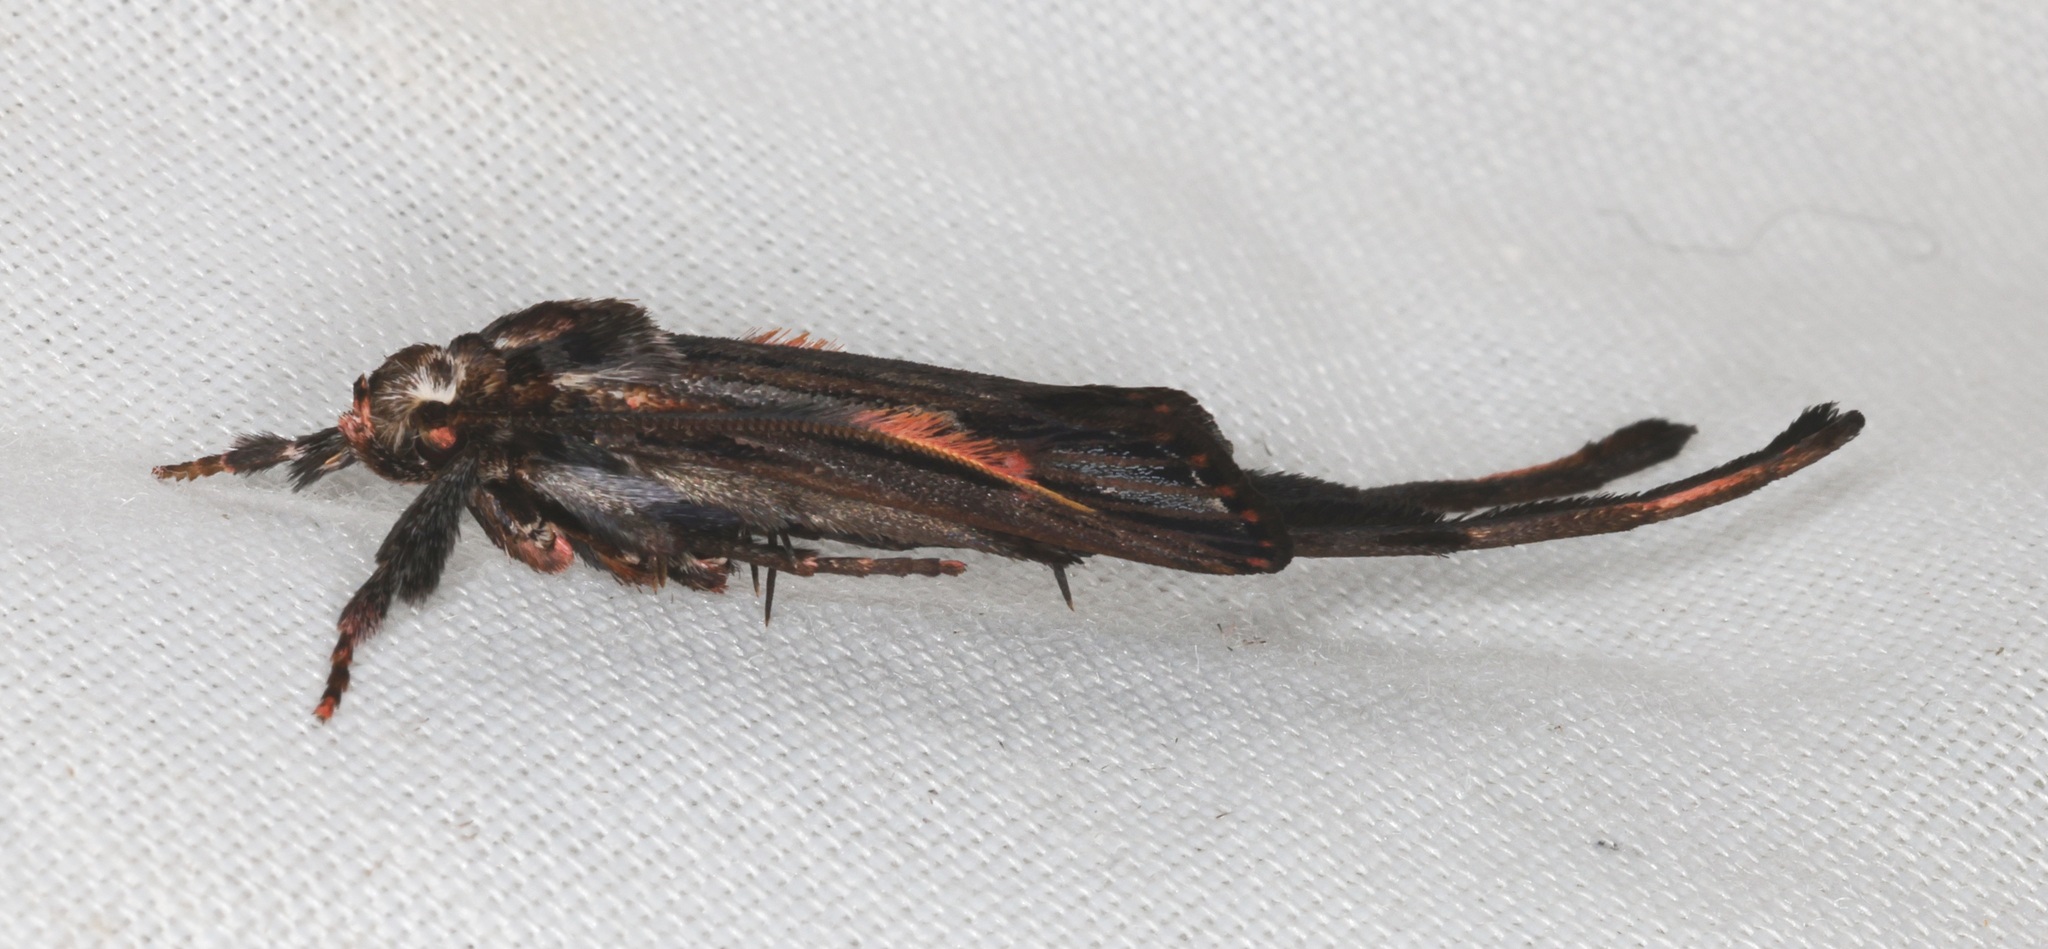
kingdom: Animalia
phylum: Arthropoda
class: Insecta
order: Lepidoptera
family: Ashinagidae
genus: Ashinaga
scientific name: Ashinaga longimana
